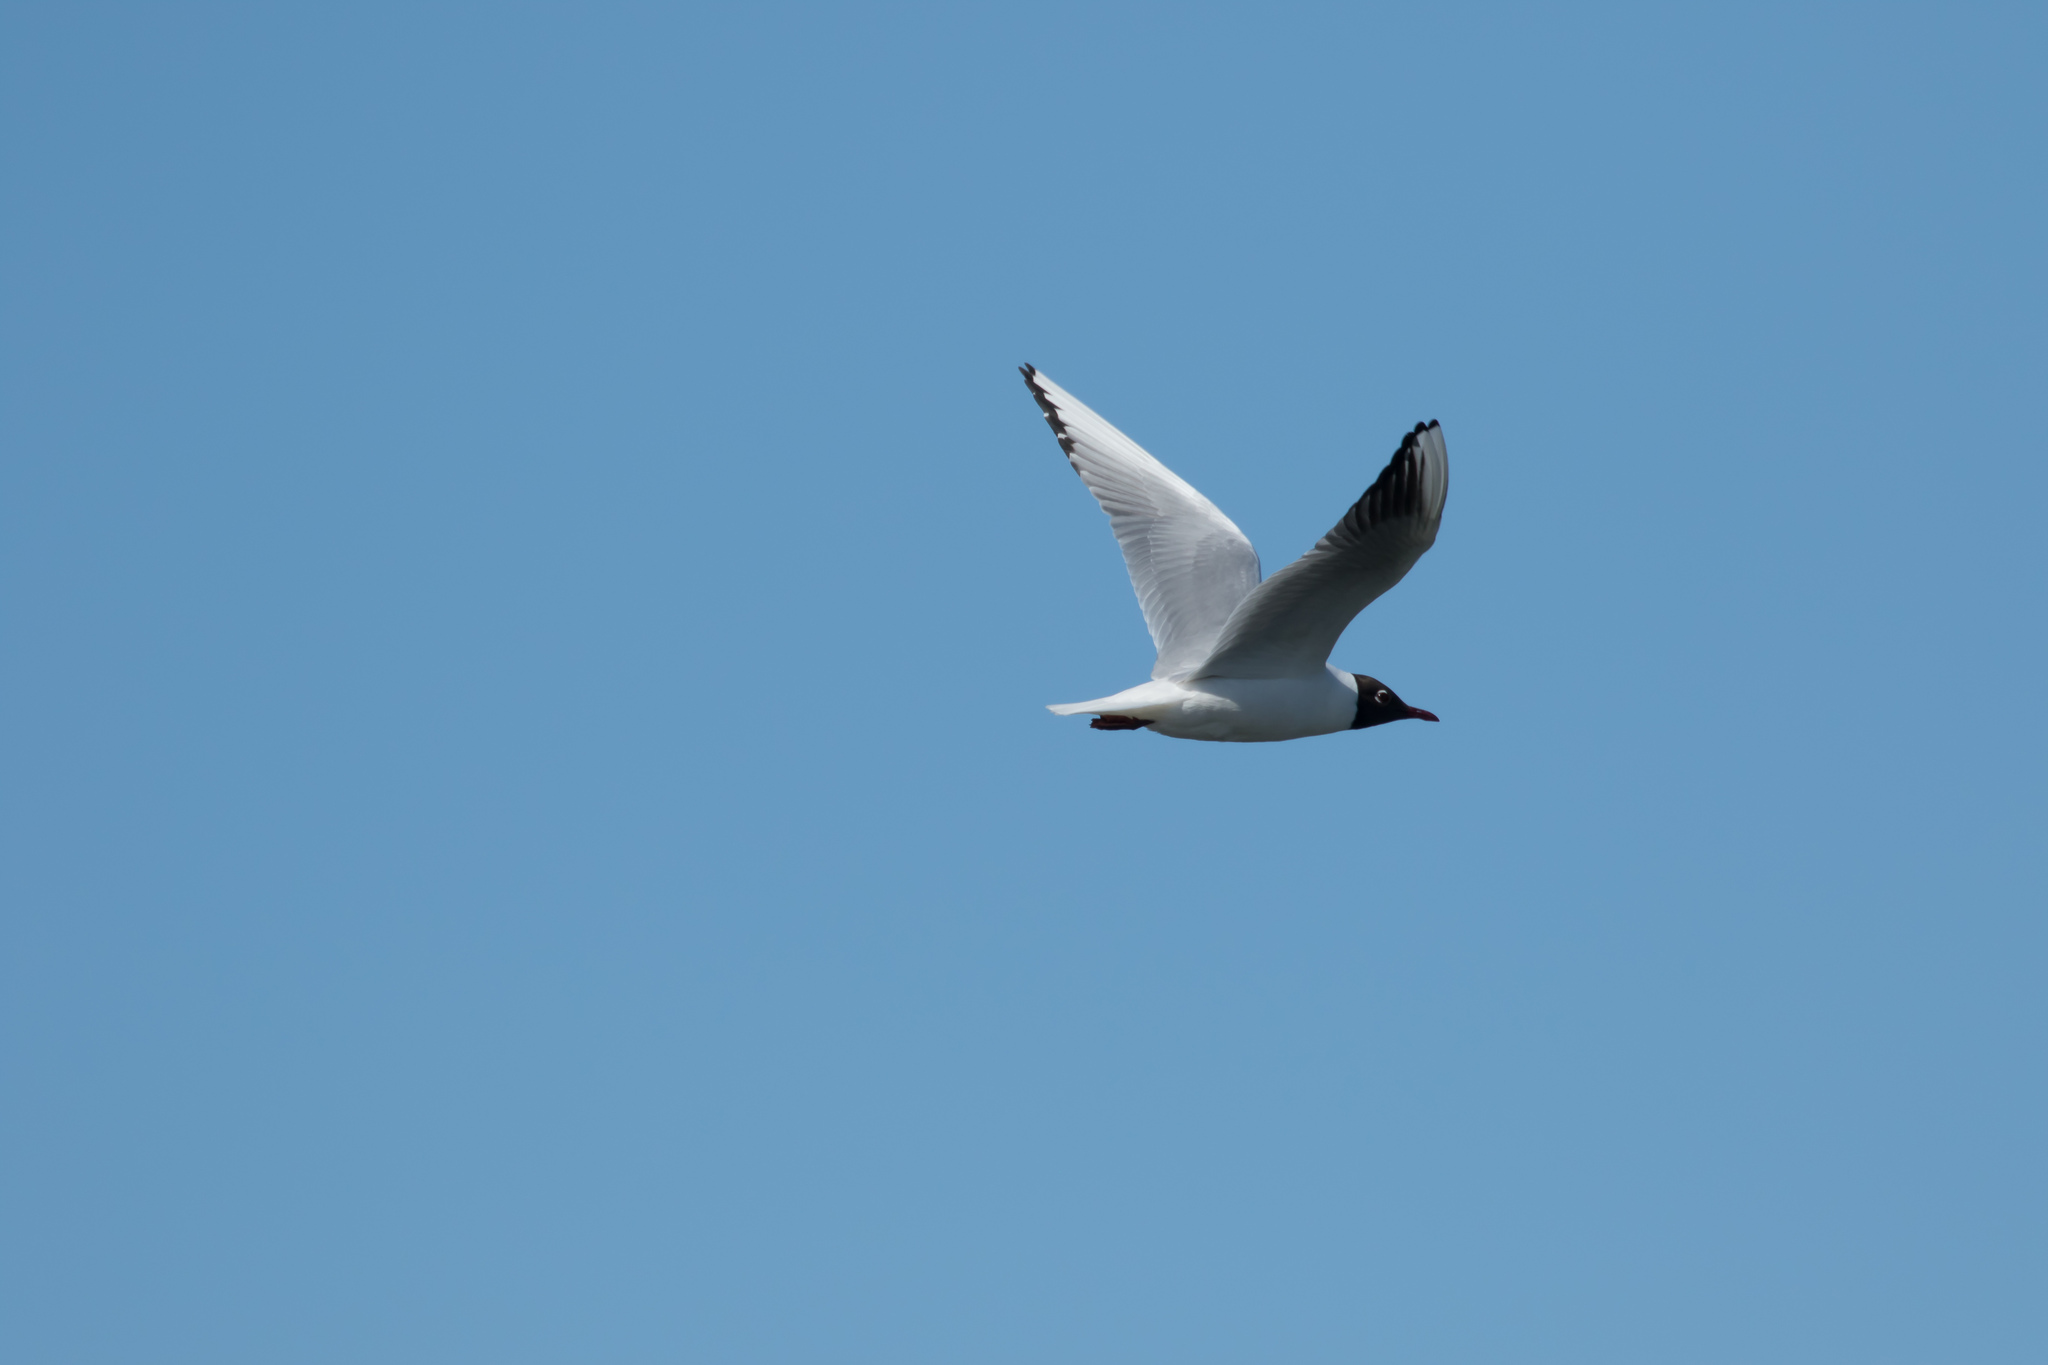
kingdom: Animalia
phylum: Chordata
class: Aves
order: Charadriiformes
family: Laridae
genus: Chroicocephalus
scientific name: Chroicocephalus ridibundus
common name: Black-headed gull
